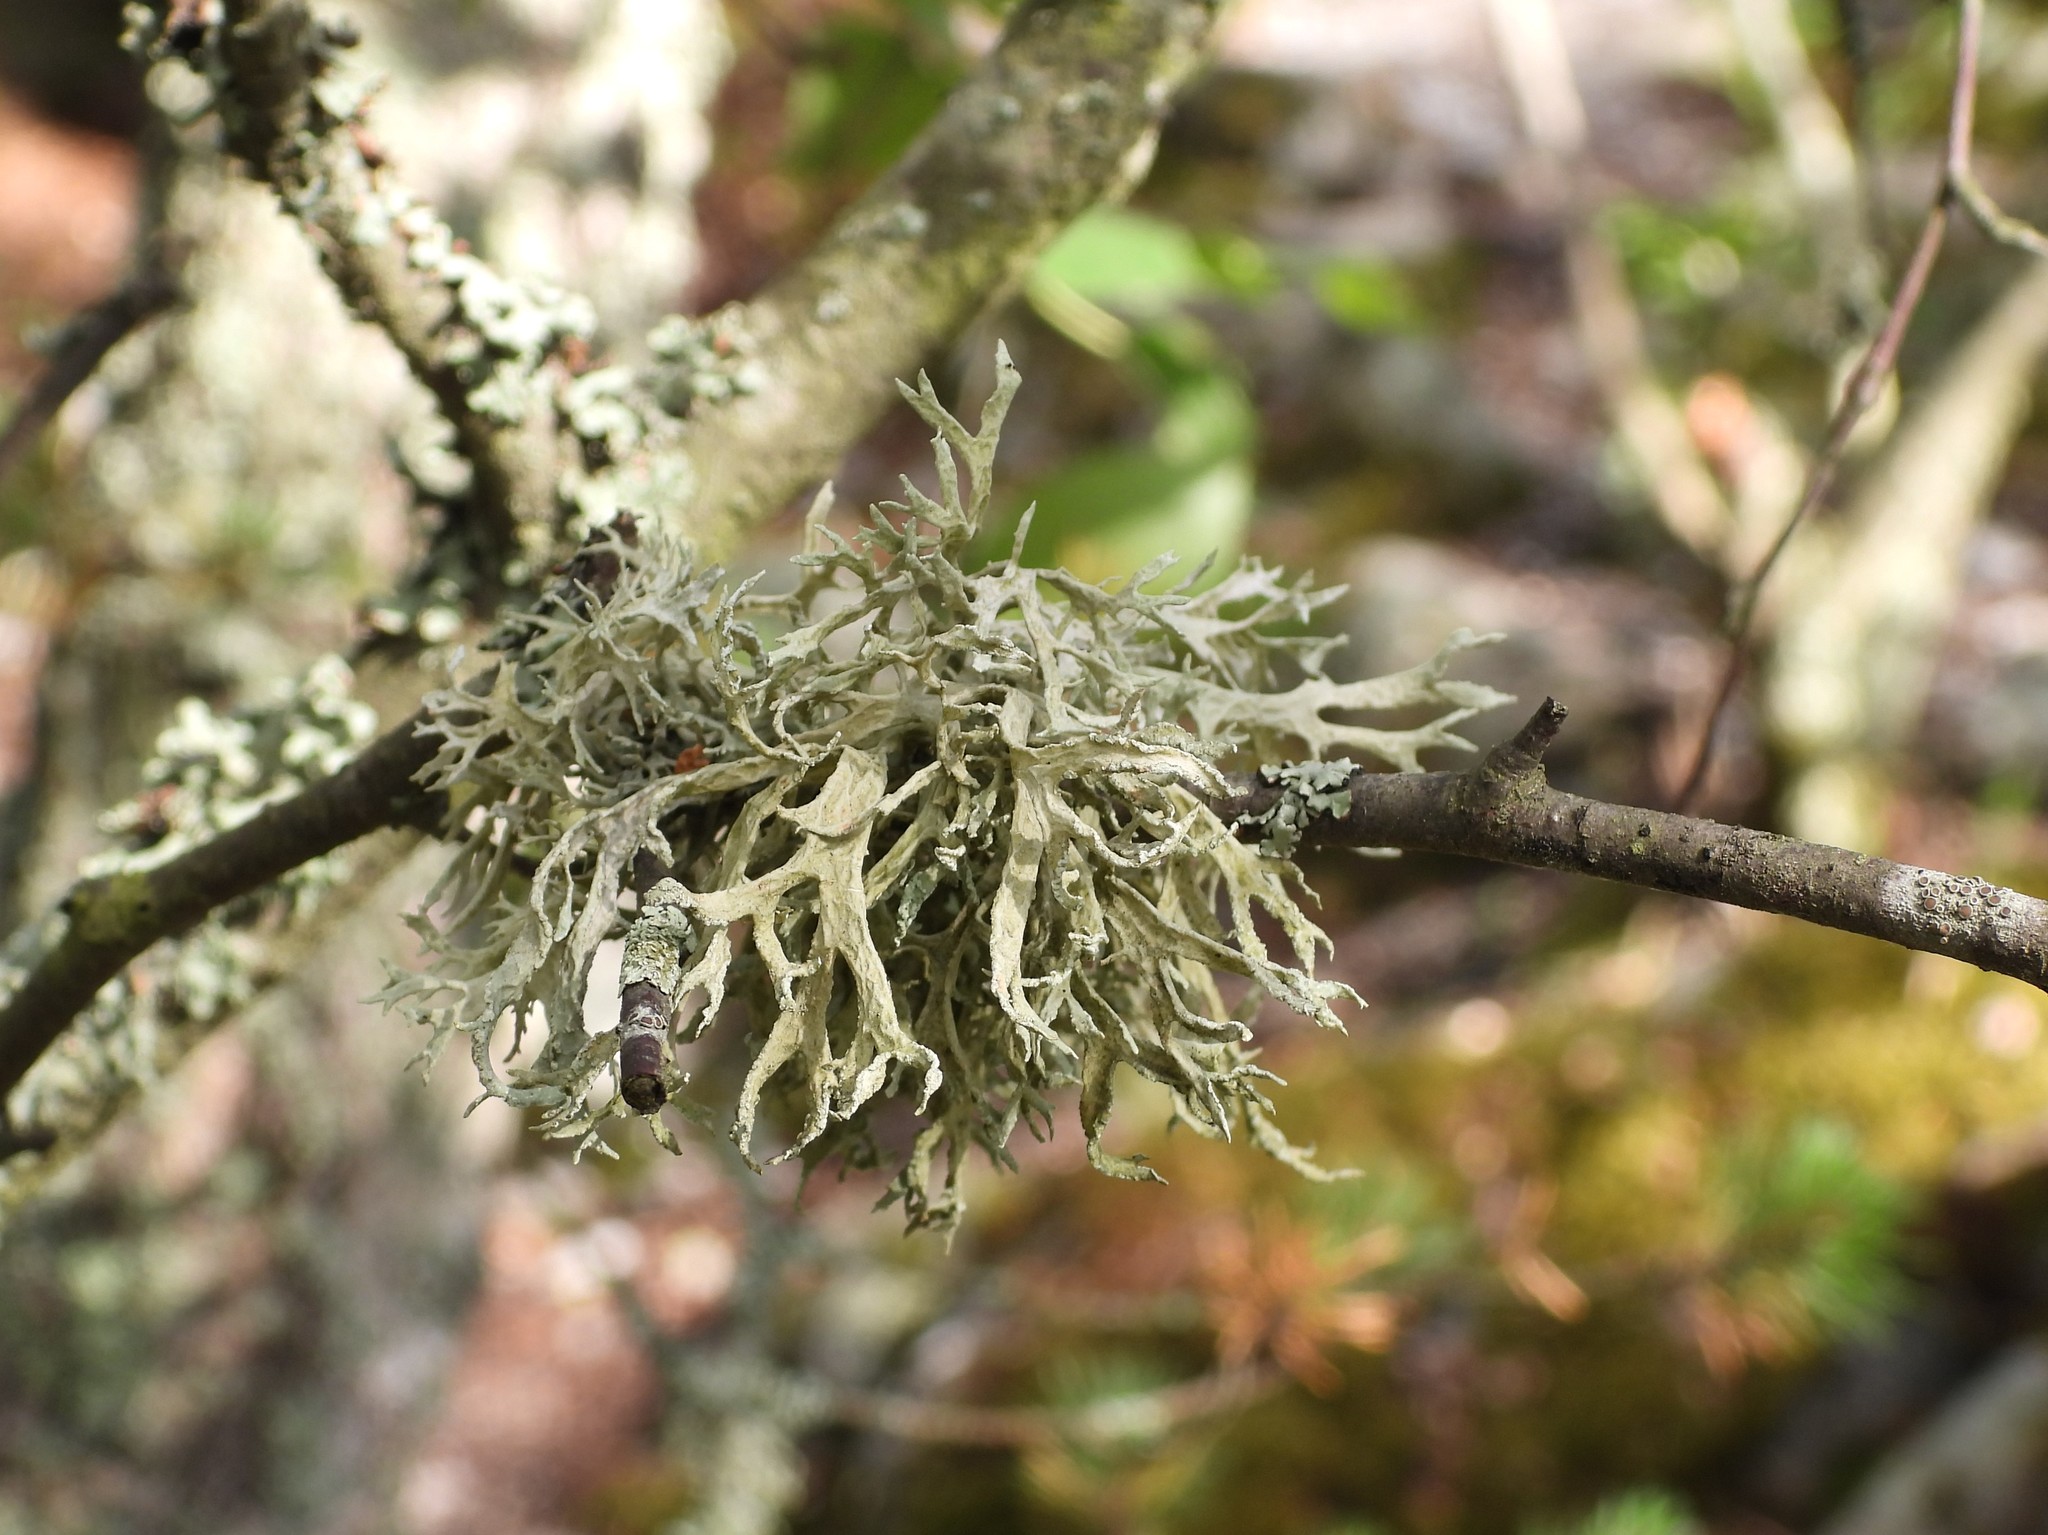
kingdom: Fungi
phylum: Ascomycota
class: Lecanoromycetes
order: Lecanorales
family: Parmeliaceae
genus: Evernia
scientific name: Evernia prunastri
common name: Oak moss
